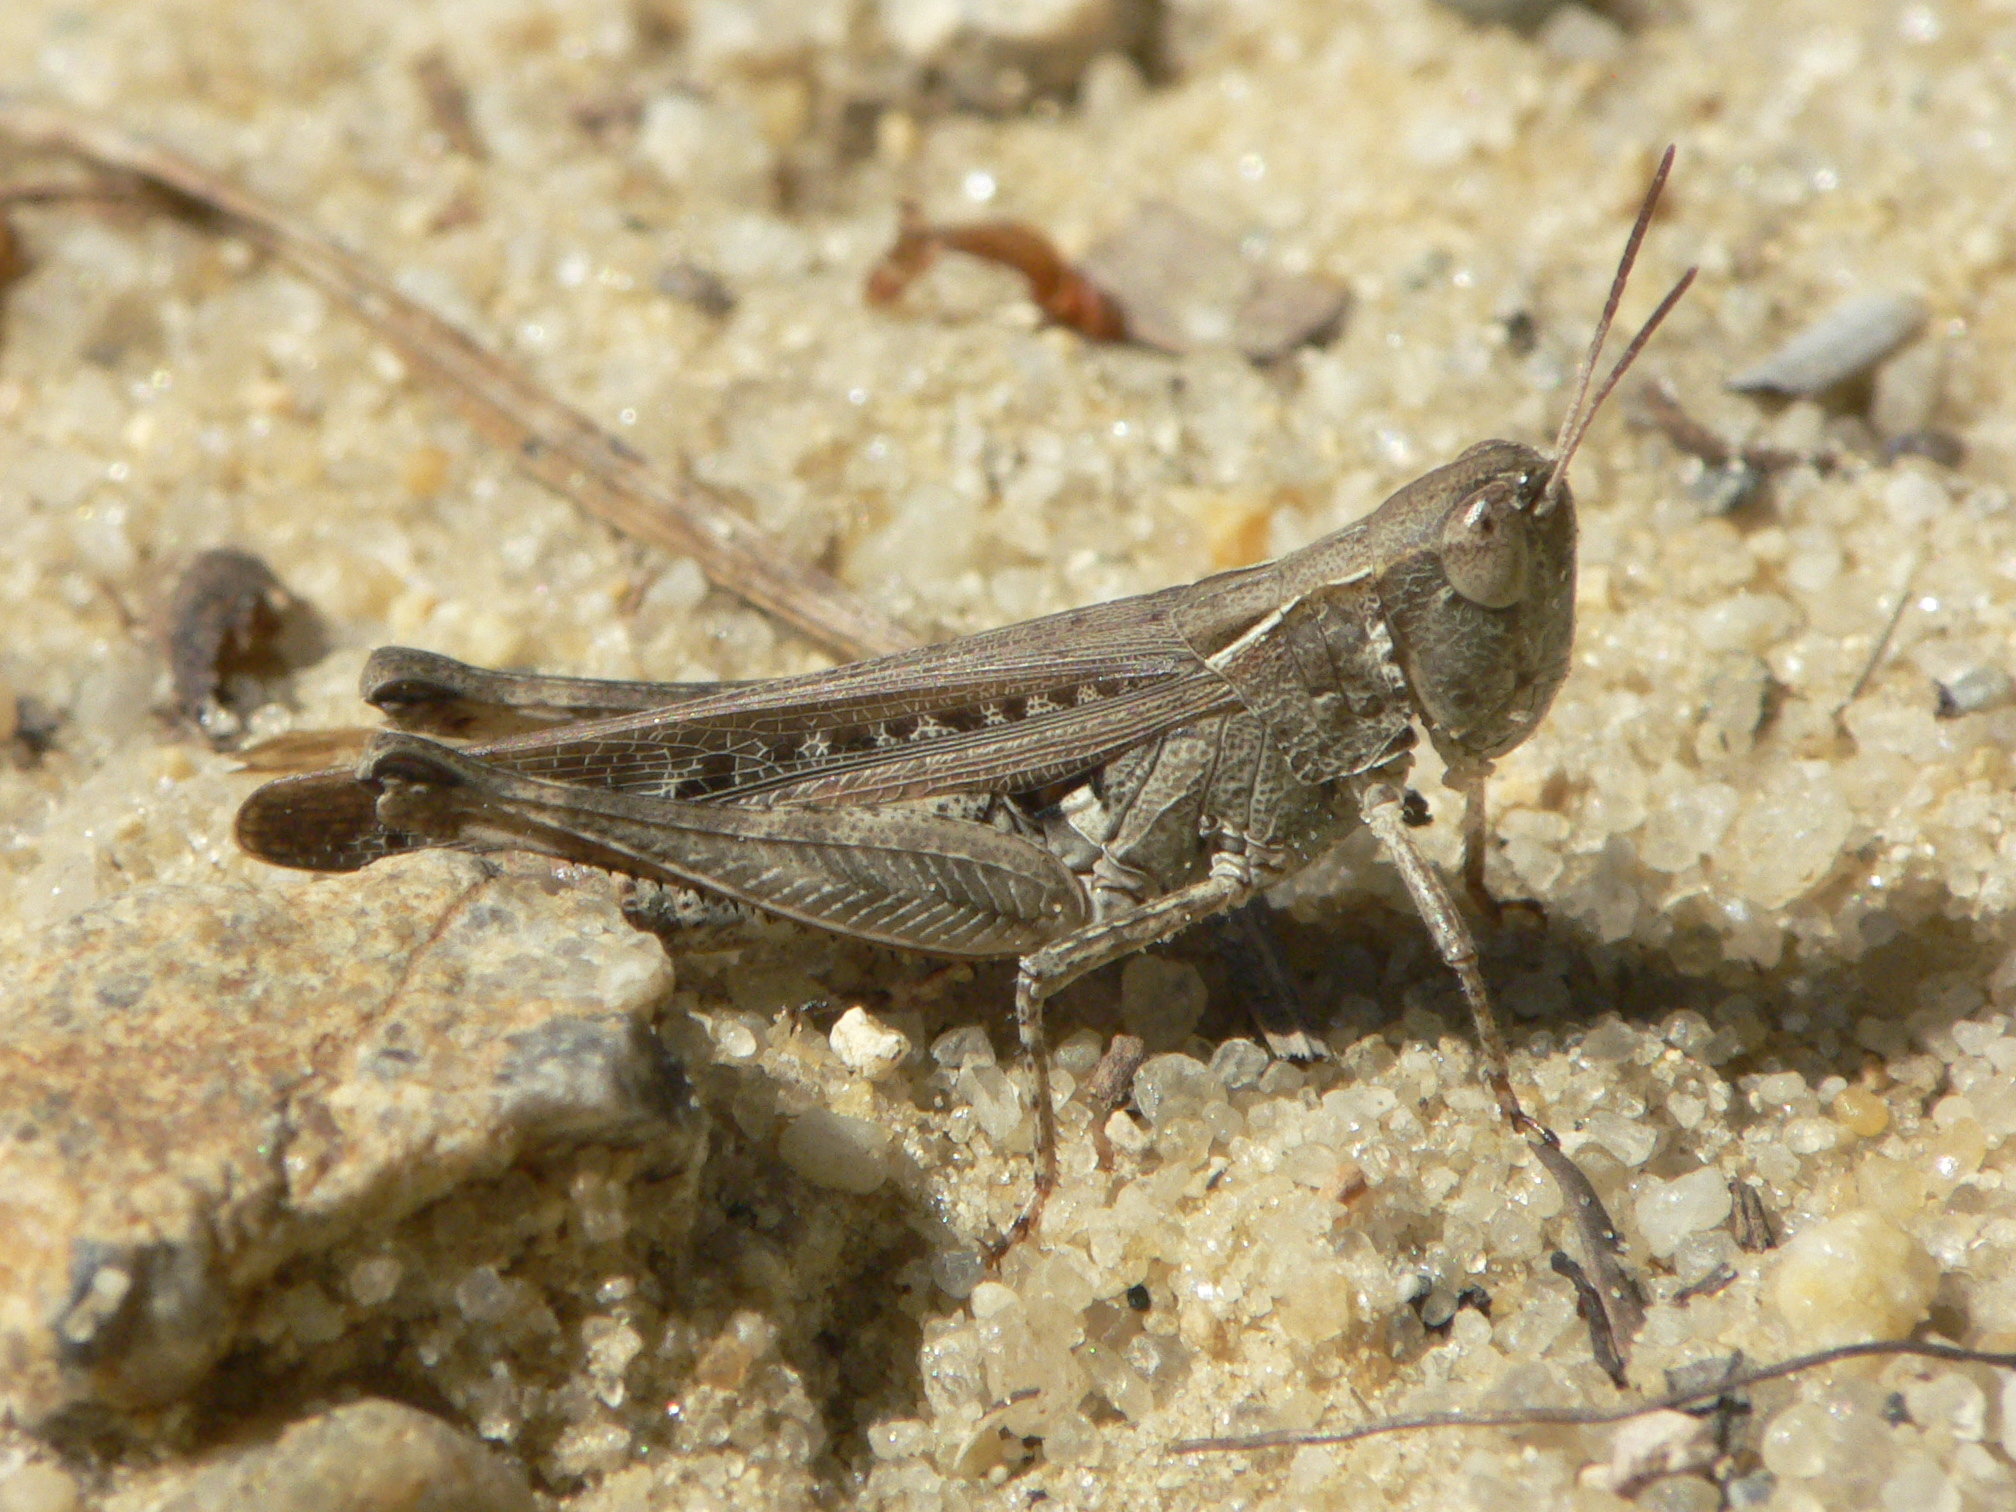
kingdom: Animalia
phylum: Arthropoda
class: Insecta
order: Orthoptera
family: Acrididae
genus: Orphulella
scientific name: Orphulella pelidna
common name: Spotted-wing grasshopper
